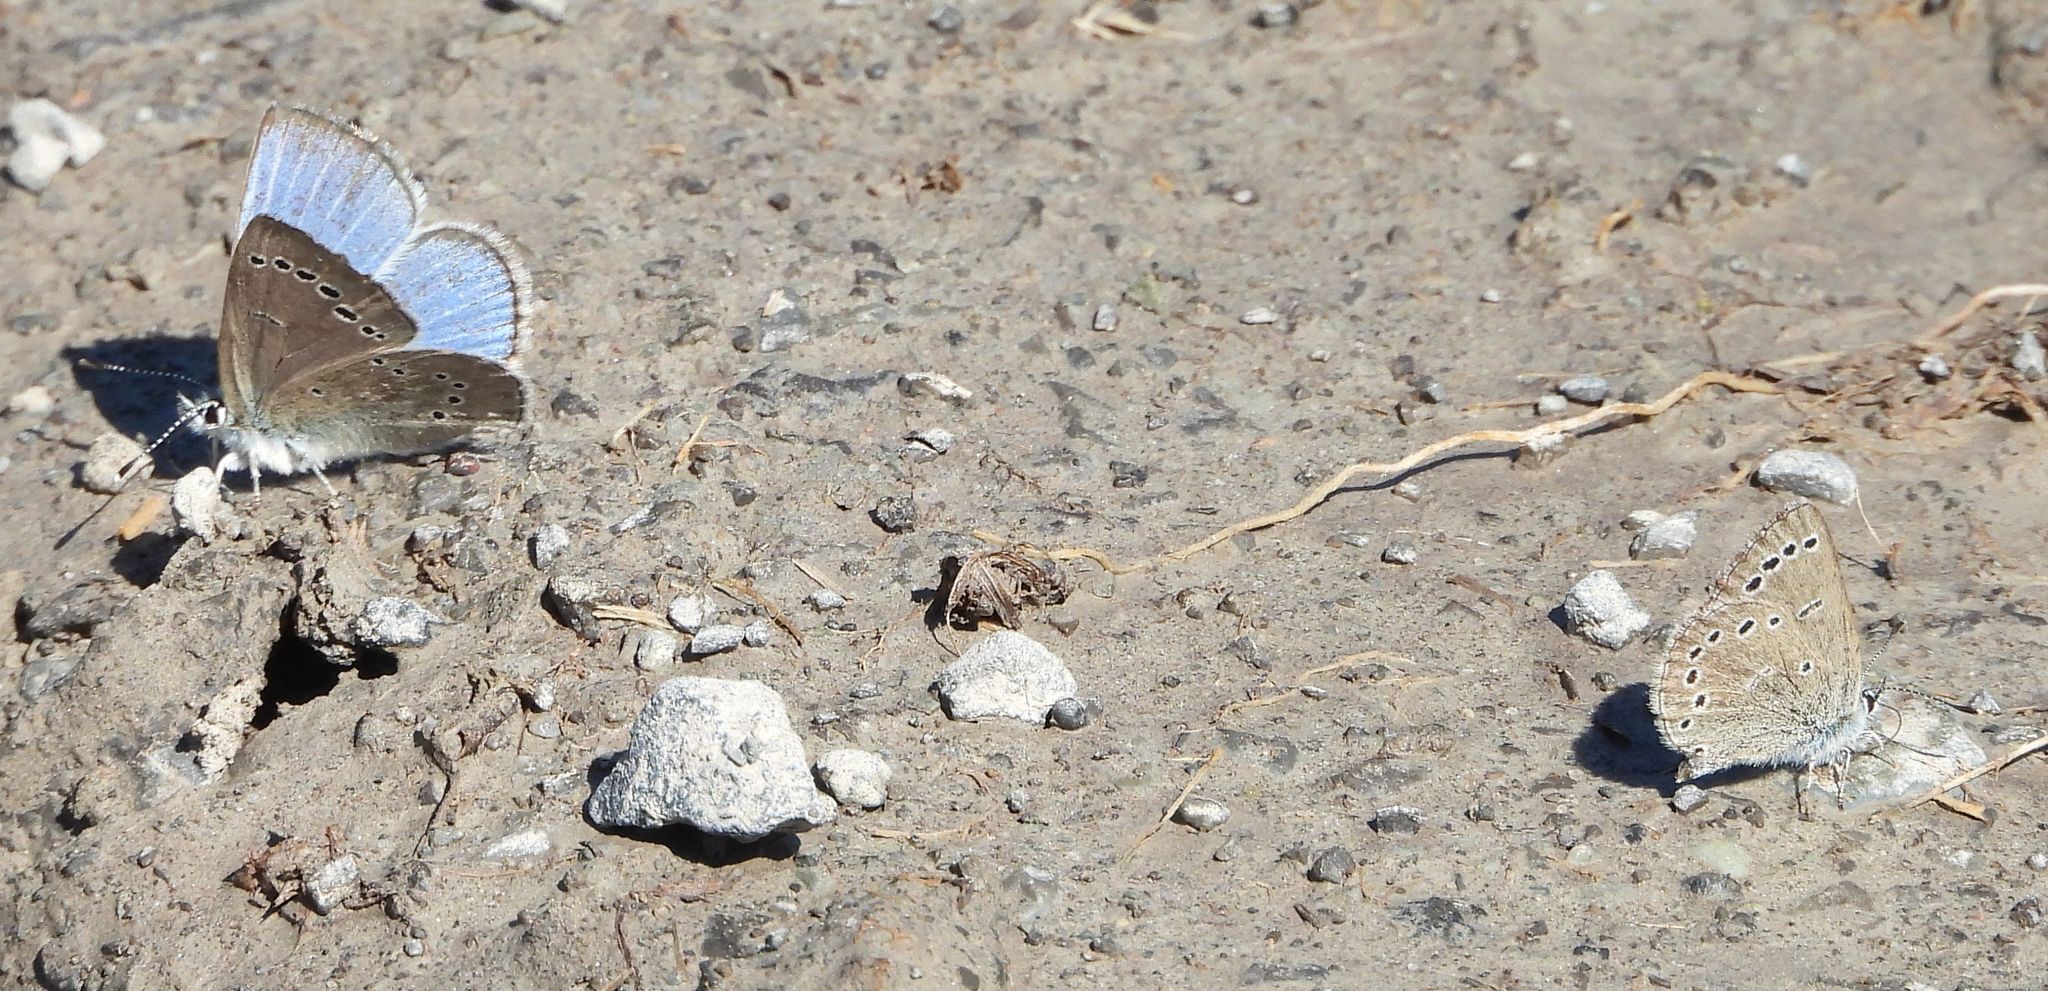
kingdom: Animalia
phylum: Arthropoda
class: Insecta
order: Lepidoptera
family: Lycaenidae
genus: Glaucopsyche
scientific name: Glaucopsyche lygdamus
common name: Silvery blue
